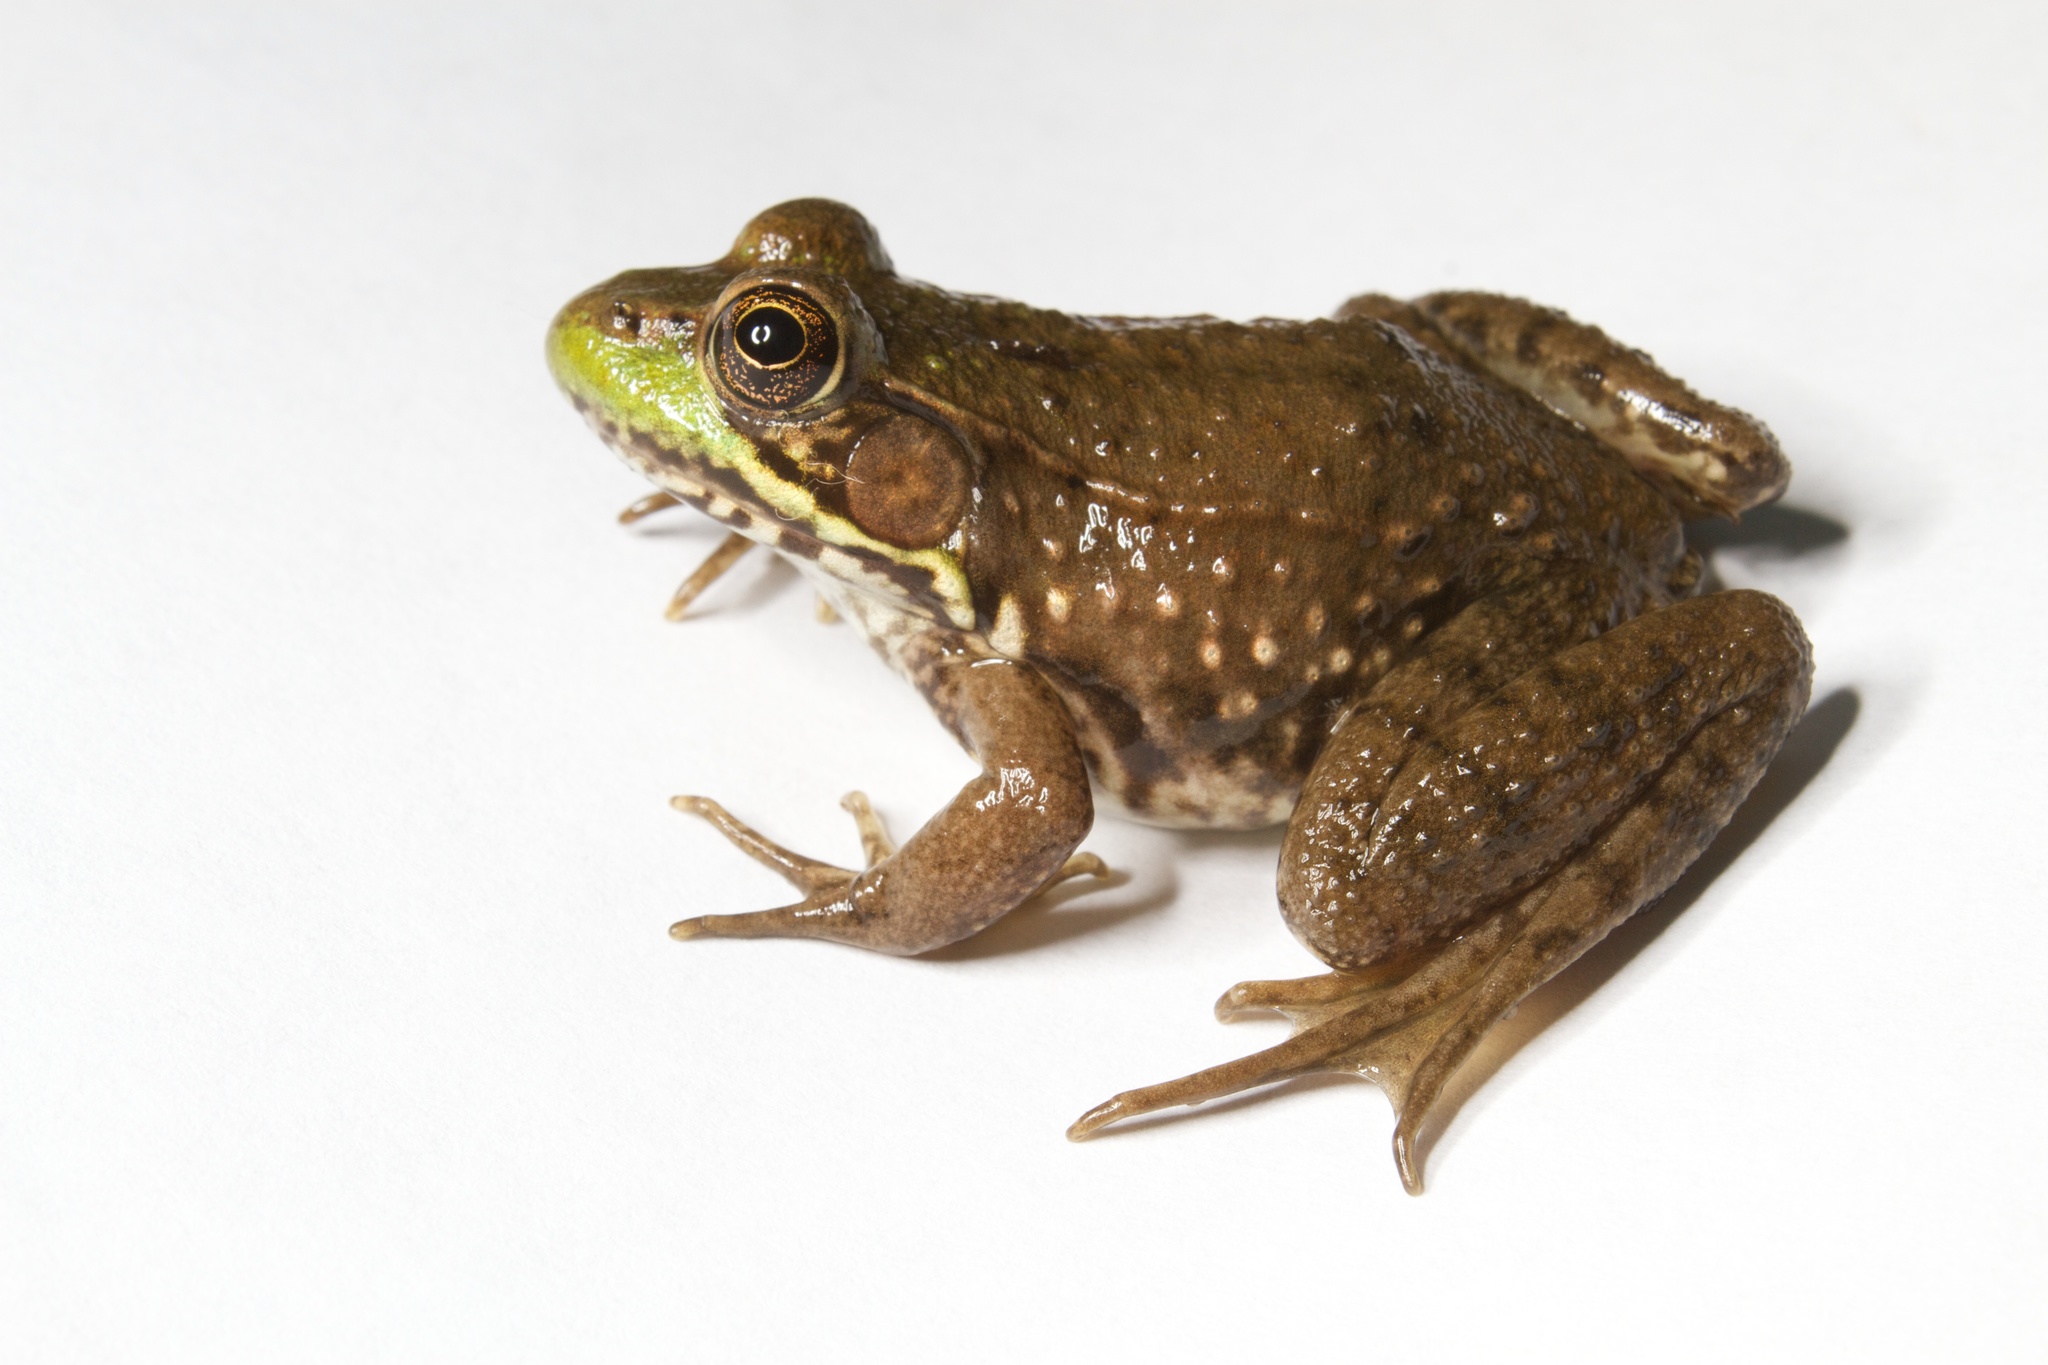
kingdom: Animalia
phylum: Chordata
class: Amphibia
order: Anura
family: Ranidae
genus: Lithobates
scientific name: Lithobates clamitans
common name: Green frog
